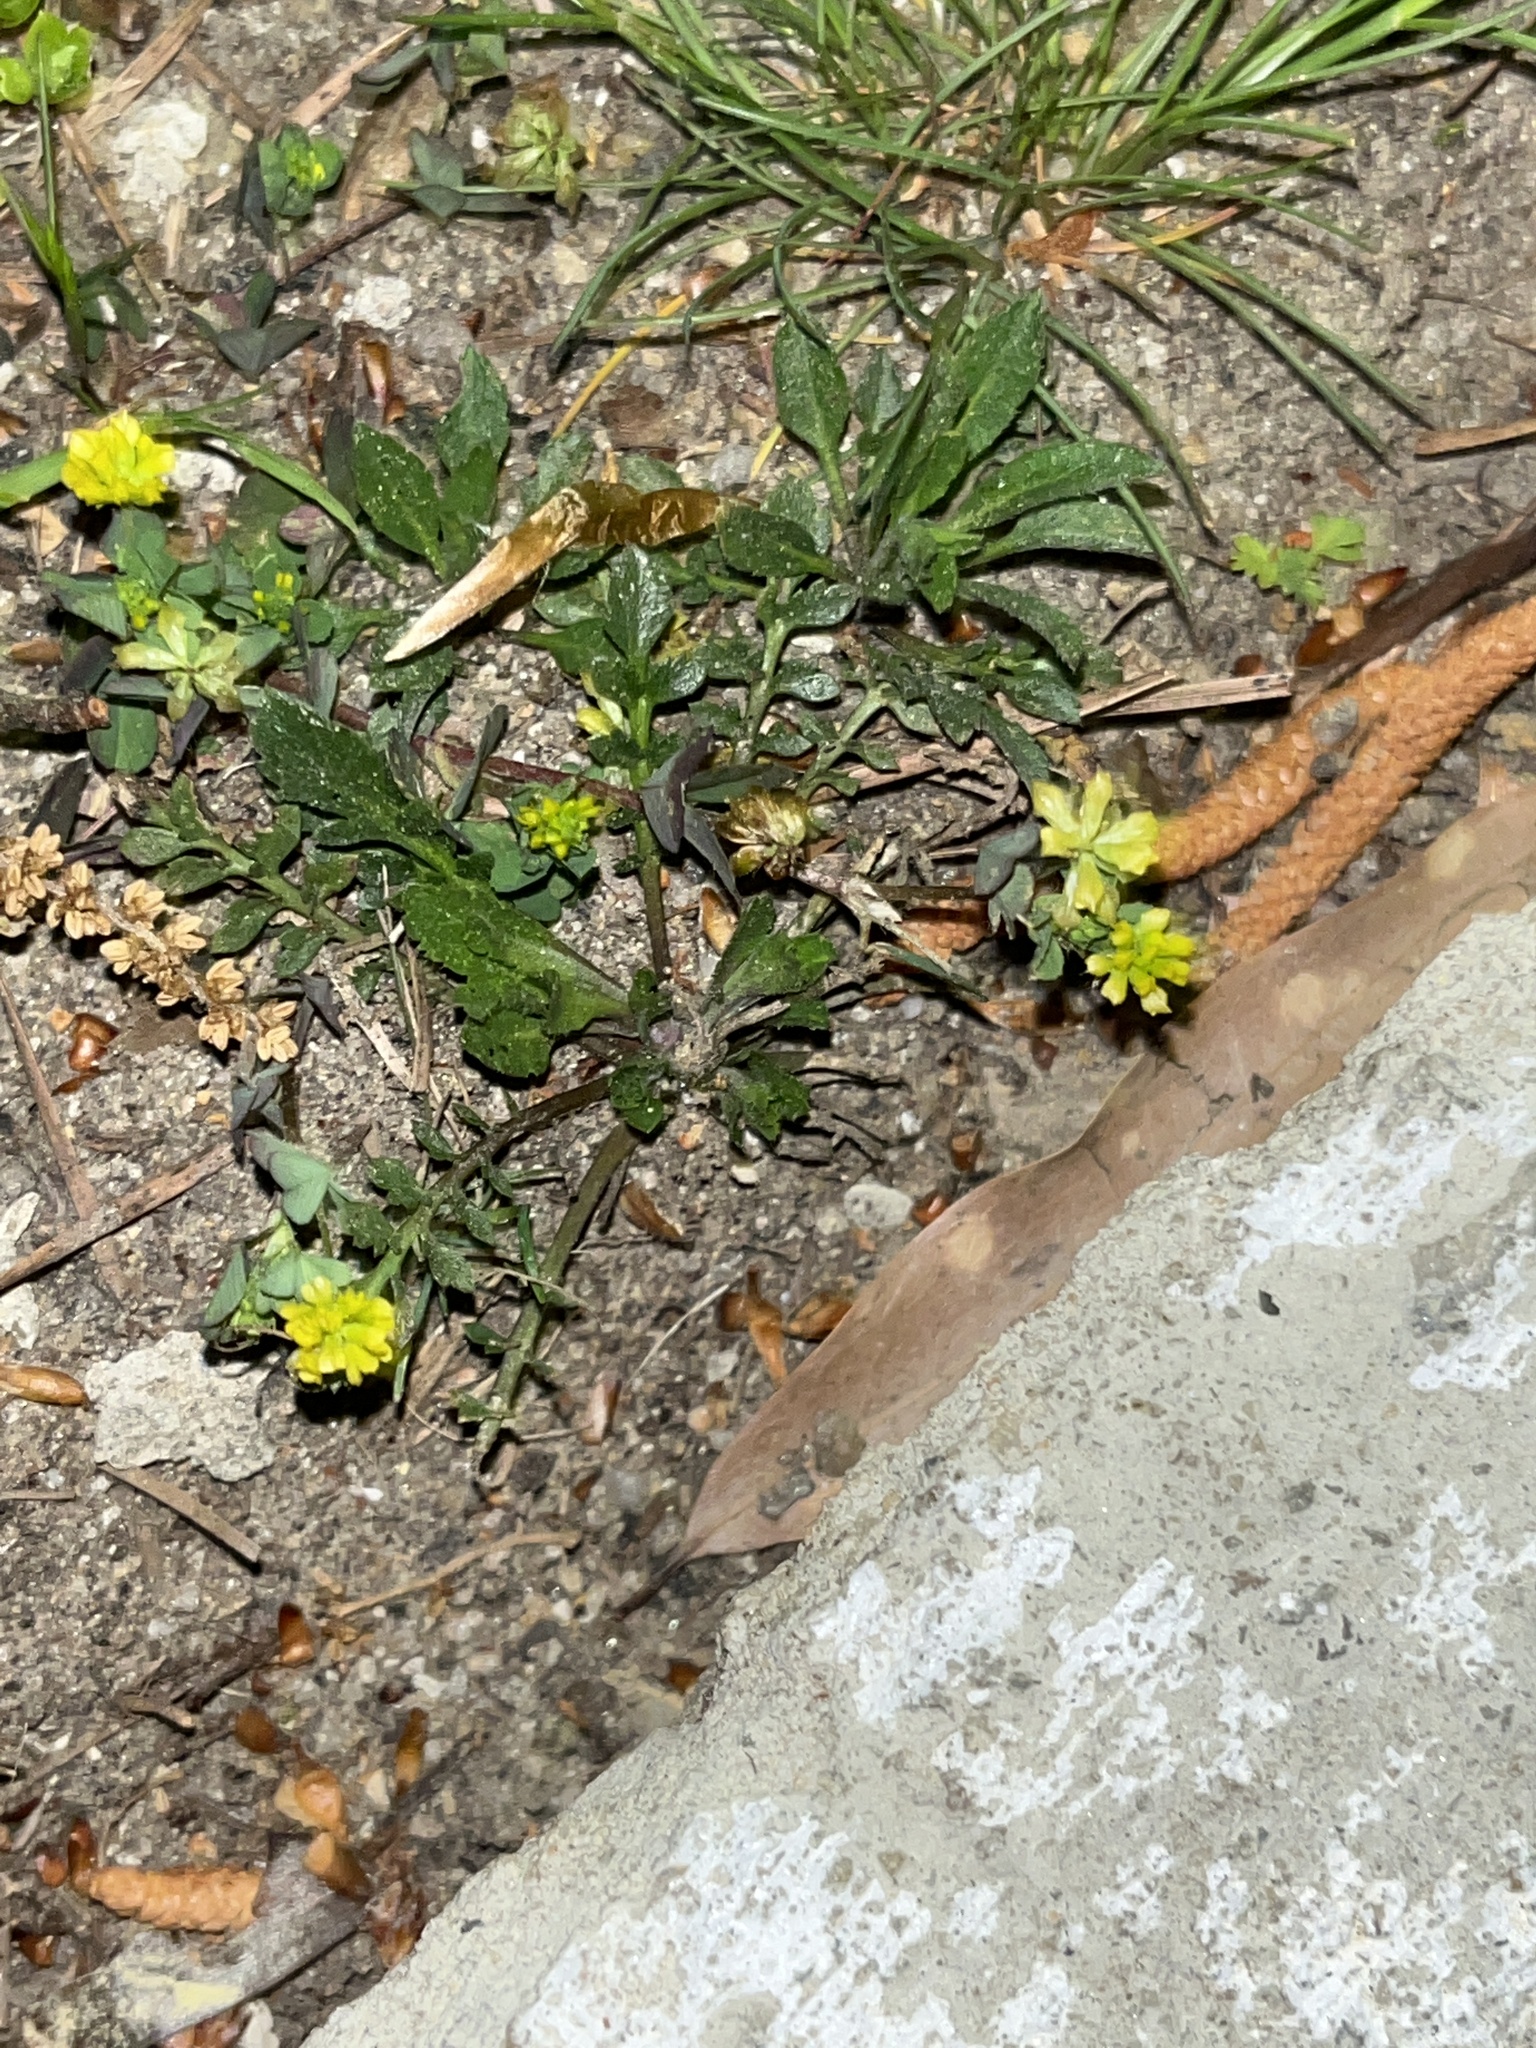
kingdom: Plantae
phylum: Tracheophyta
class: Magnoliopsida
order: Fabales
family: Fabaceae
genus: Trifolium
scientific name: Trifolium dubium
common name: Suckling clover
